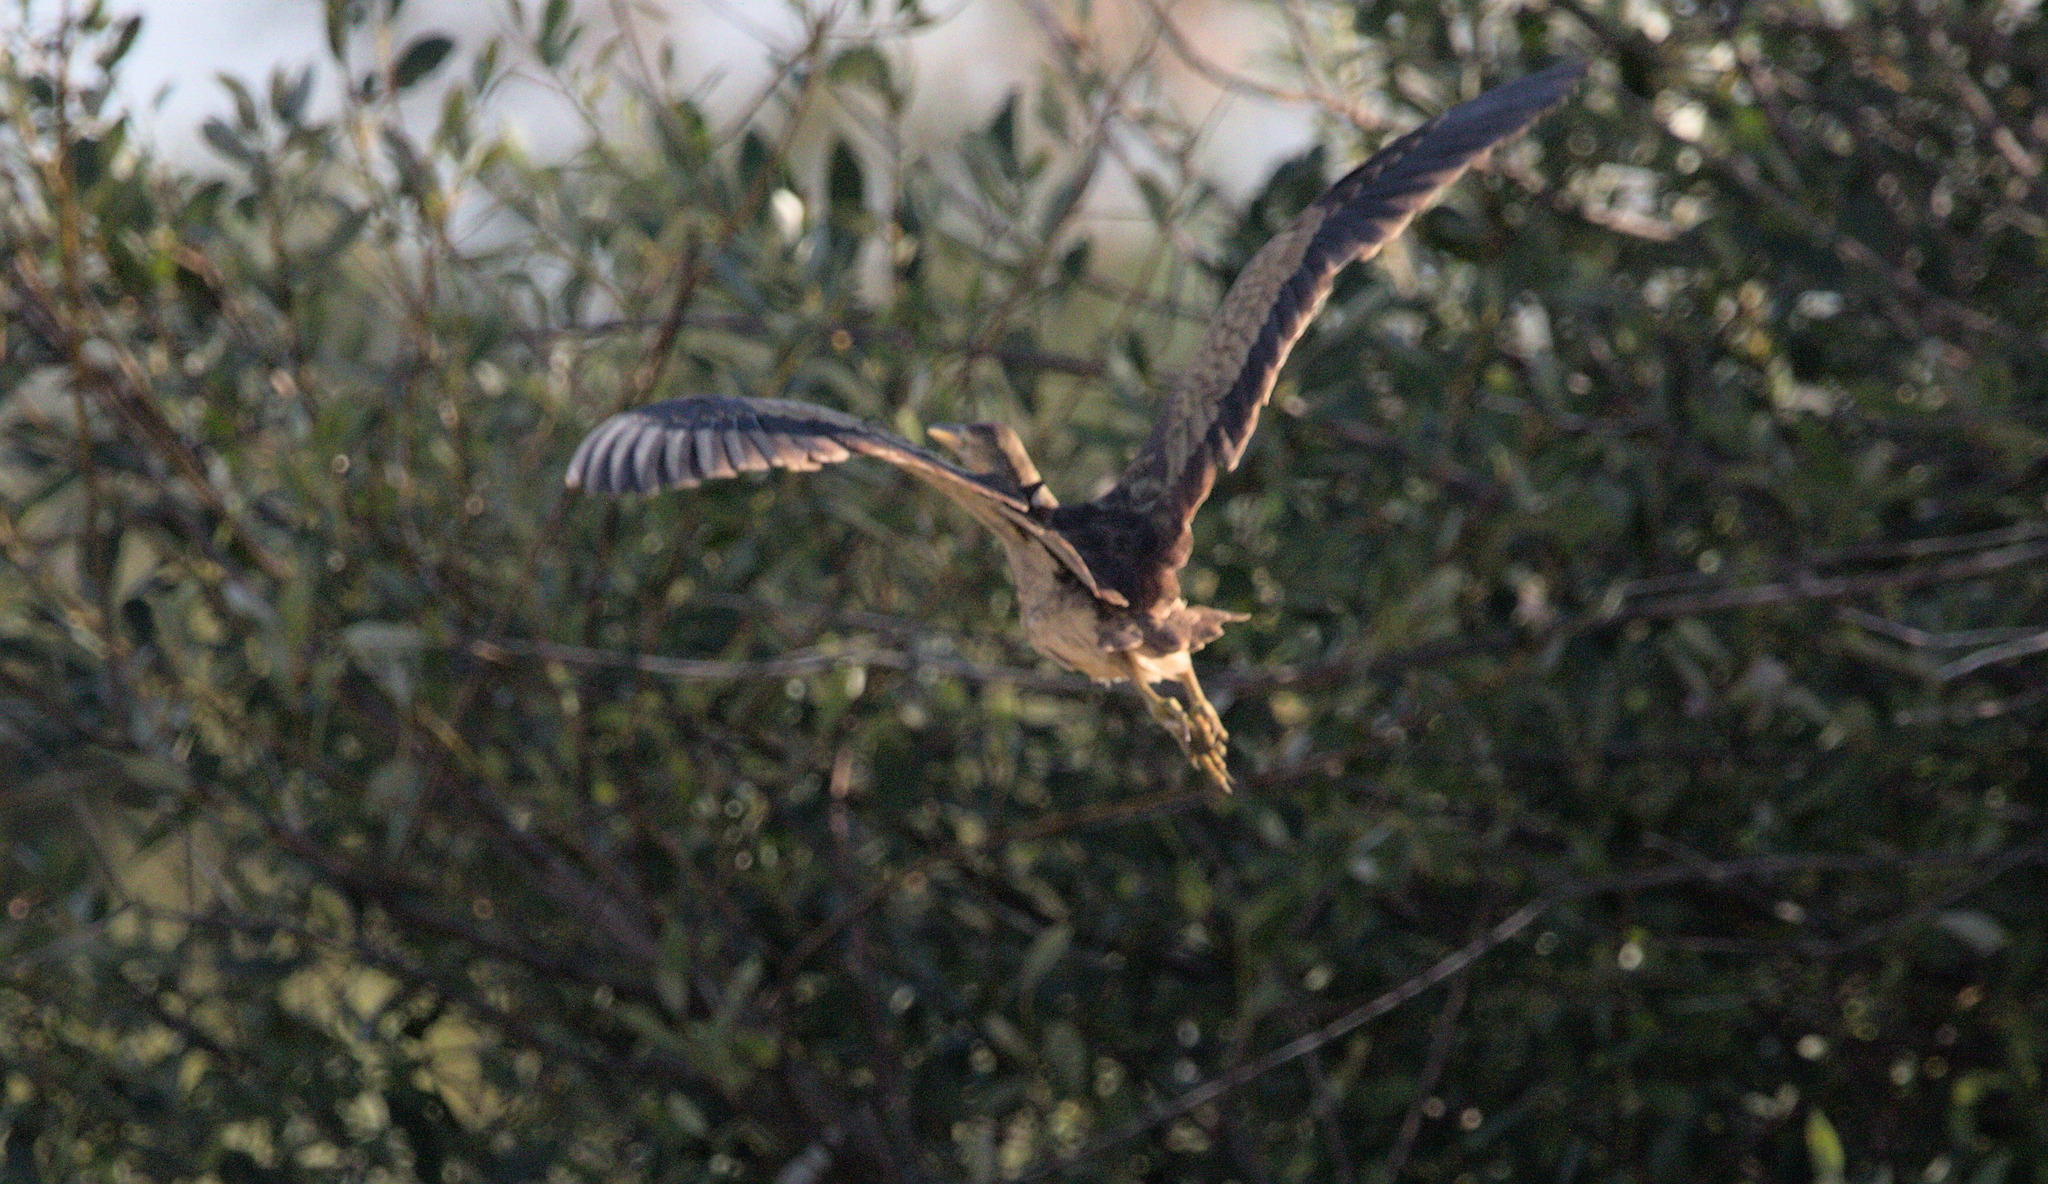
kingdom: Animalia
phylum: Chordata
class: Aves
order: Pelecaniformes
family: Ardeidae
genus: Botaurus
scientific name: Botaurus lentiginosus
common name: American bittern
